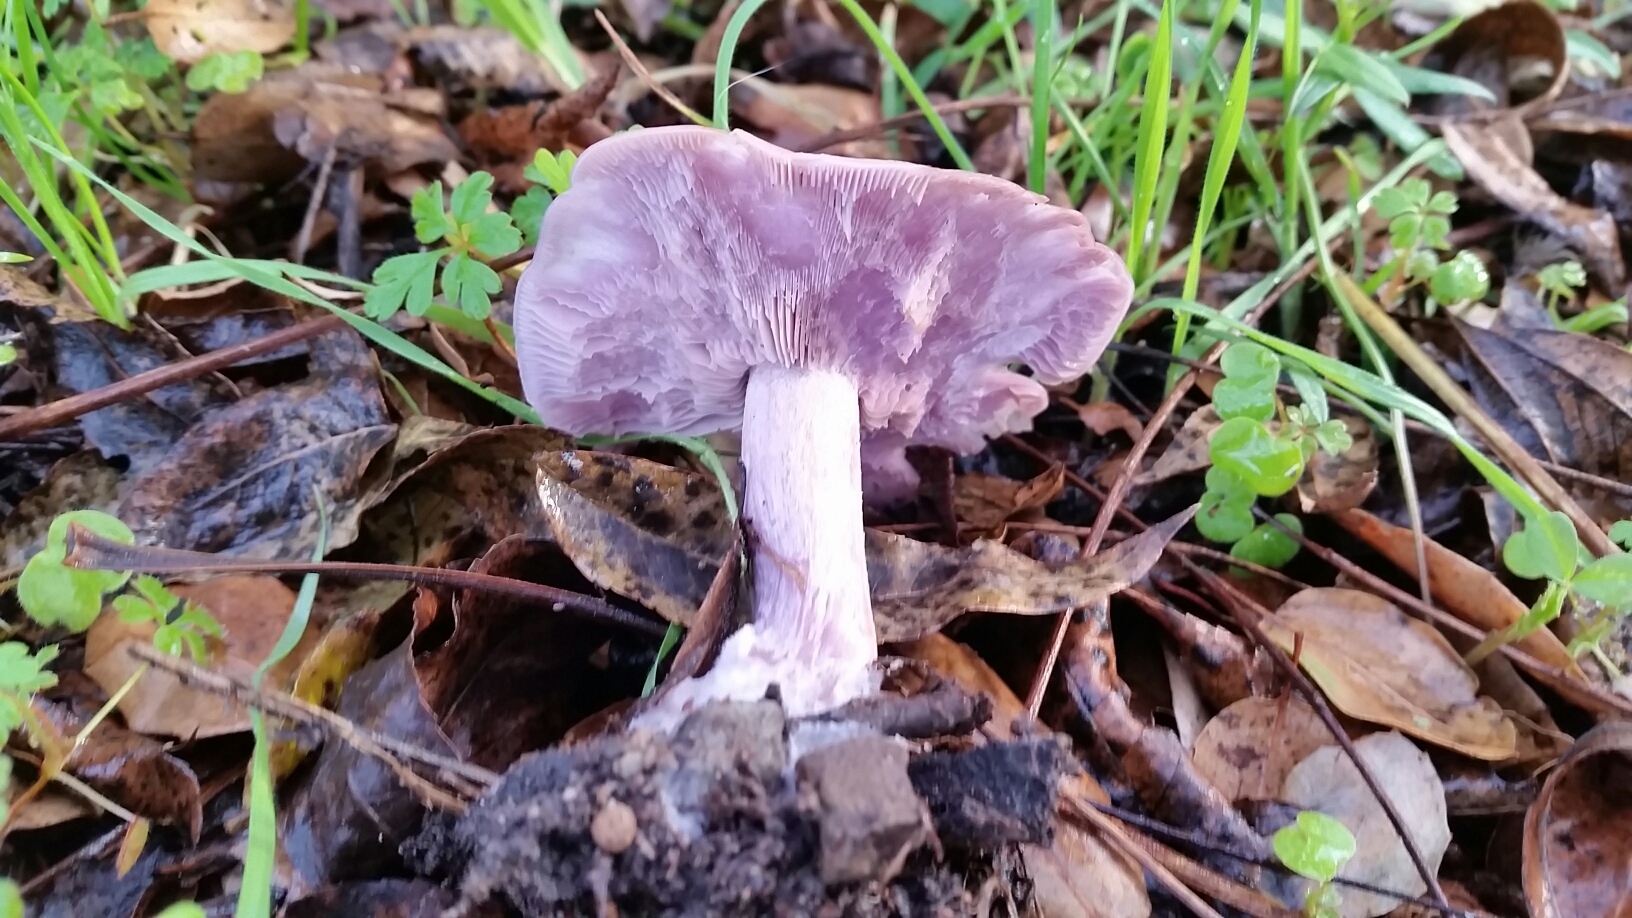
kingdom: Fungi
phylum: Basidiomycota
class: Agaricomycetes
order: Agaricales
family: Tricholomataceae
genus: Collybia
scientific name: Collybia
